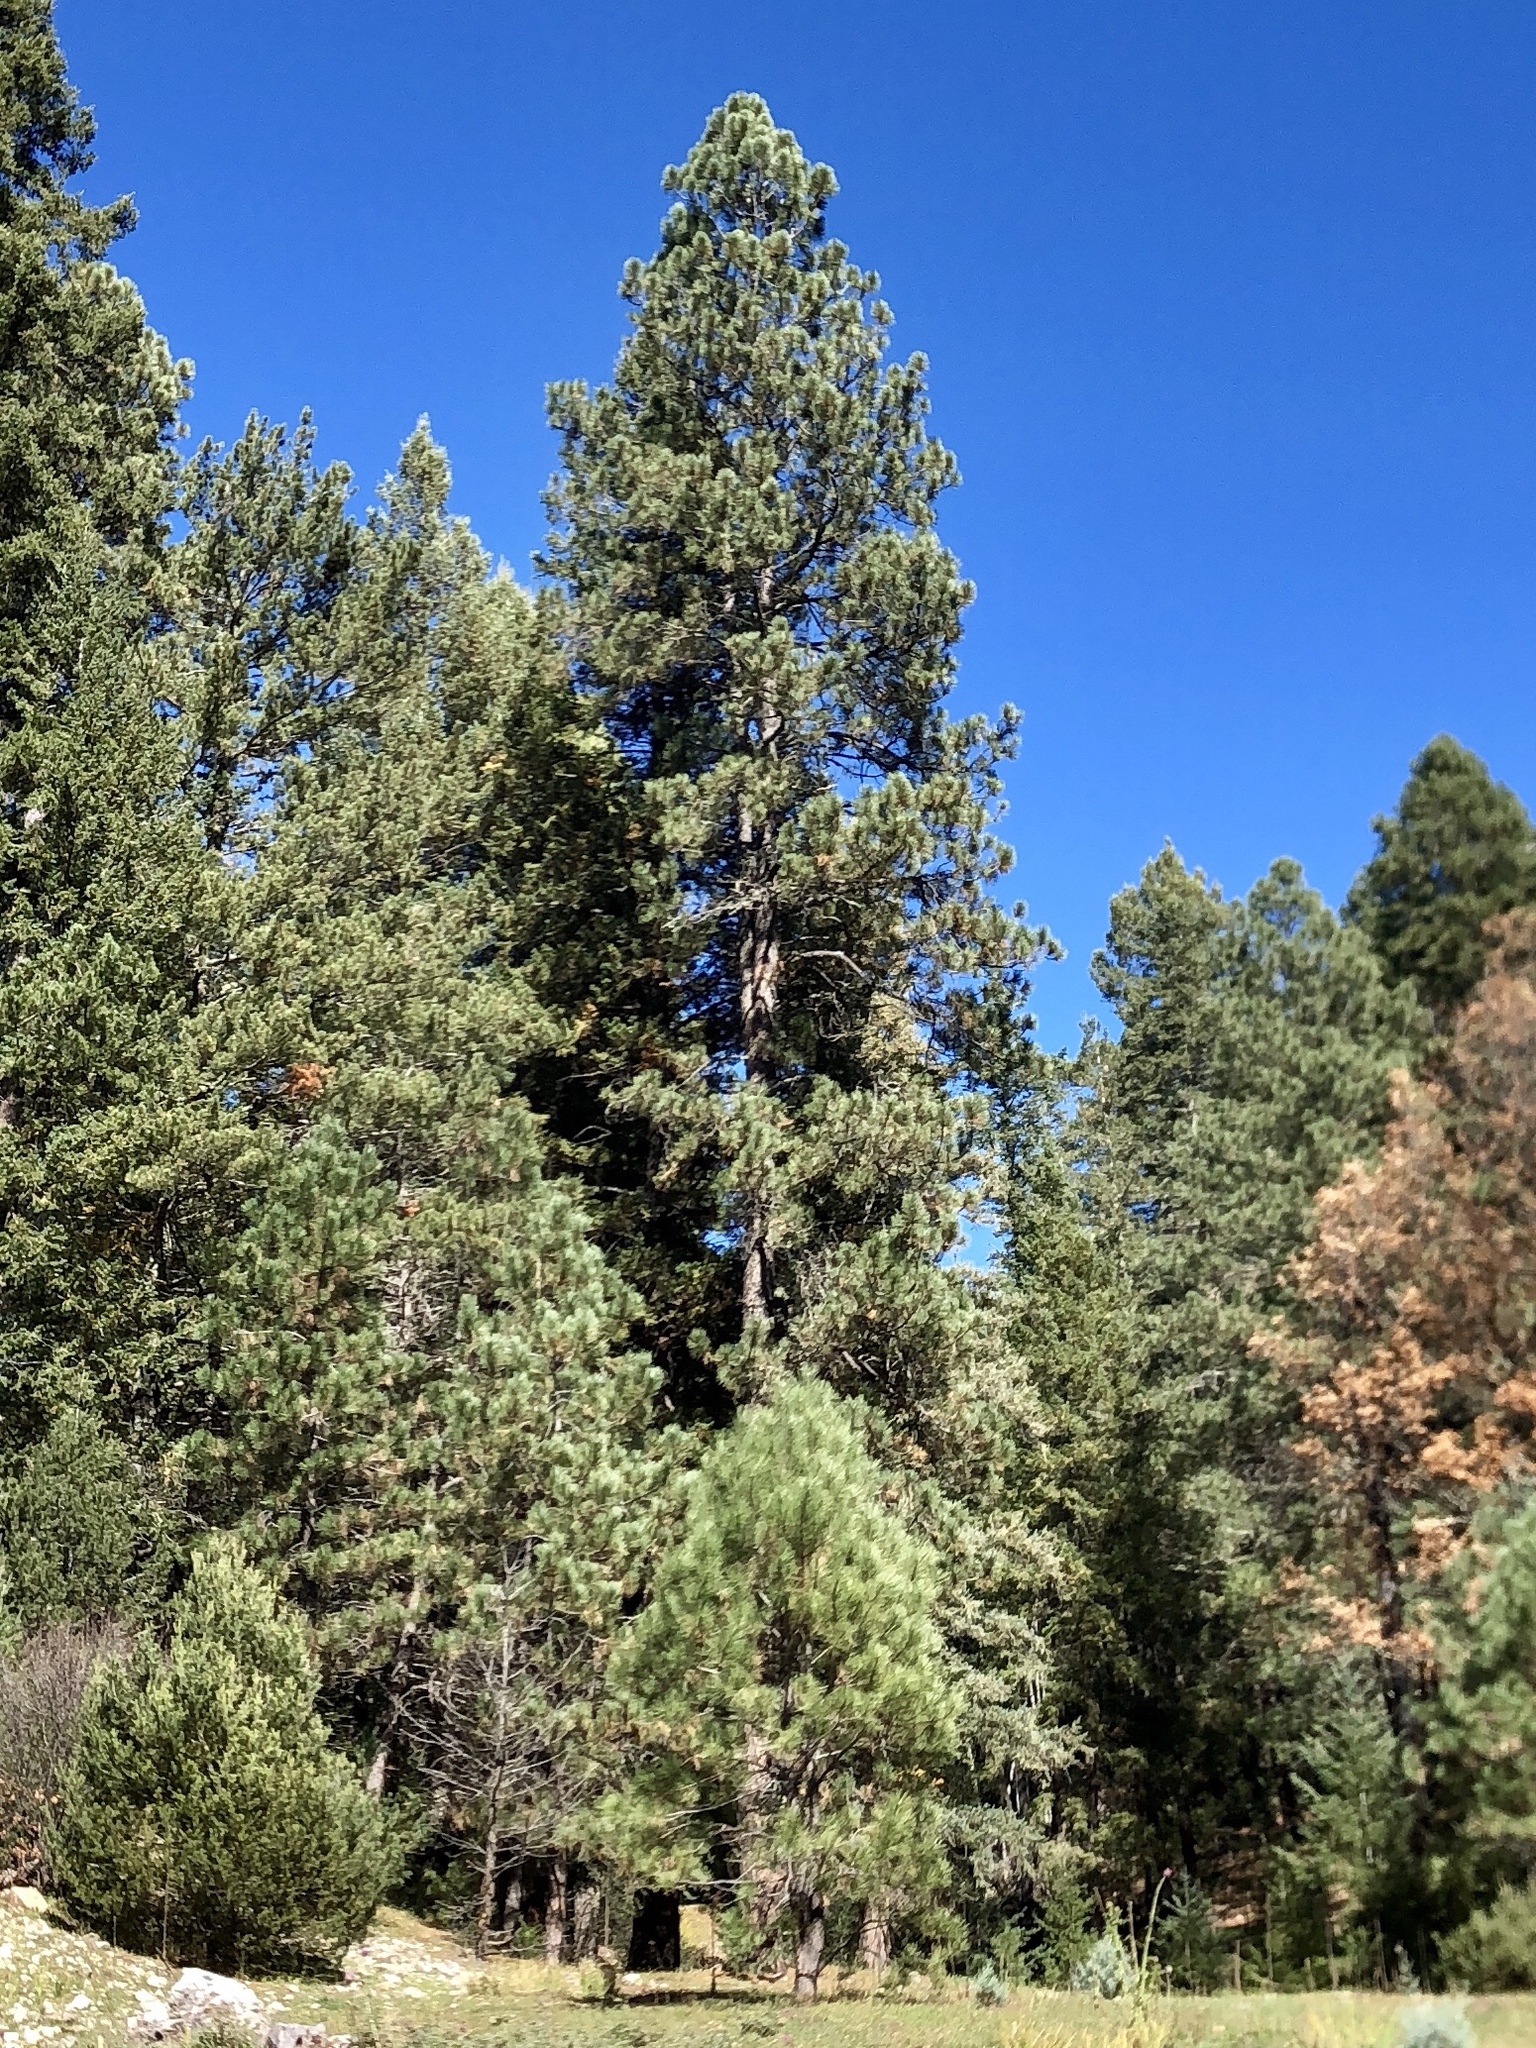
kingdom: Plantae
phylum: Tracheophyta
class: Pinopsida
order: Pinales
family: Pinaceae
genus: Pinus
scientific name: Pinus ponderosa
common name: Western yellow-pine
